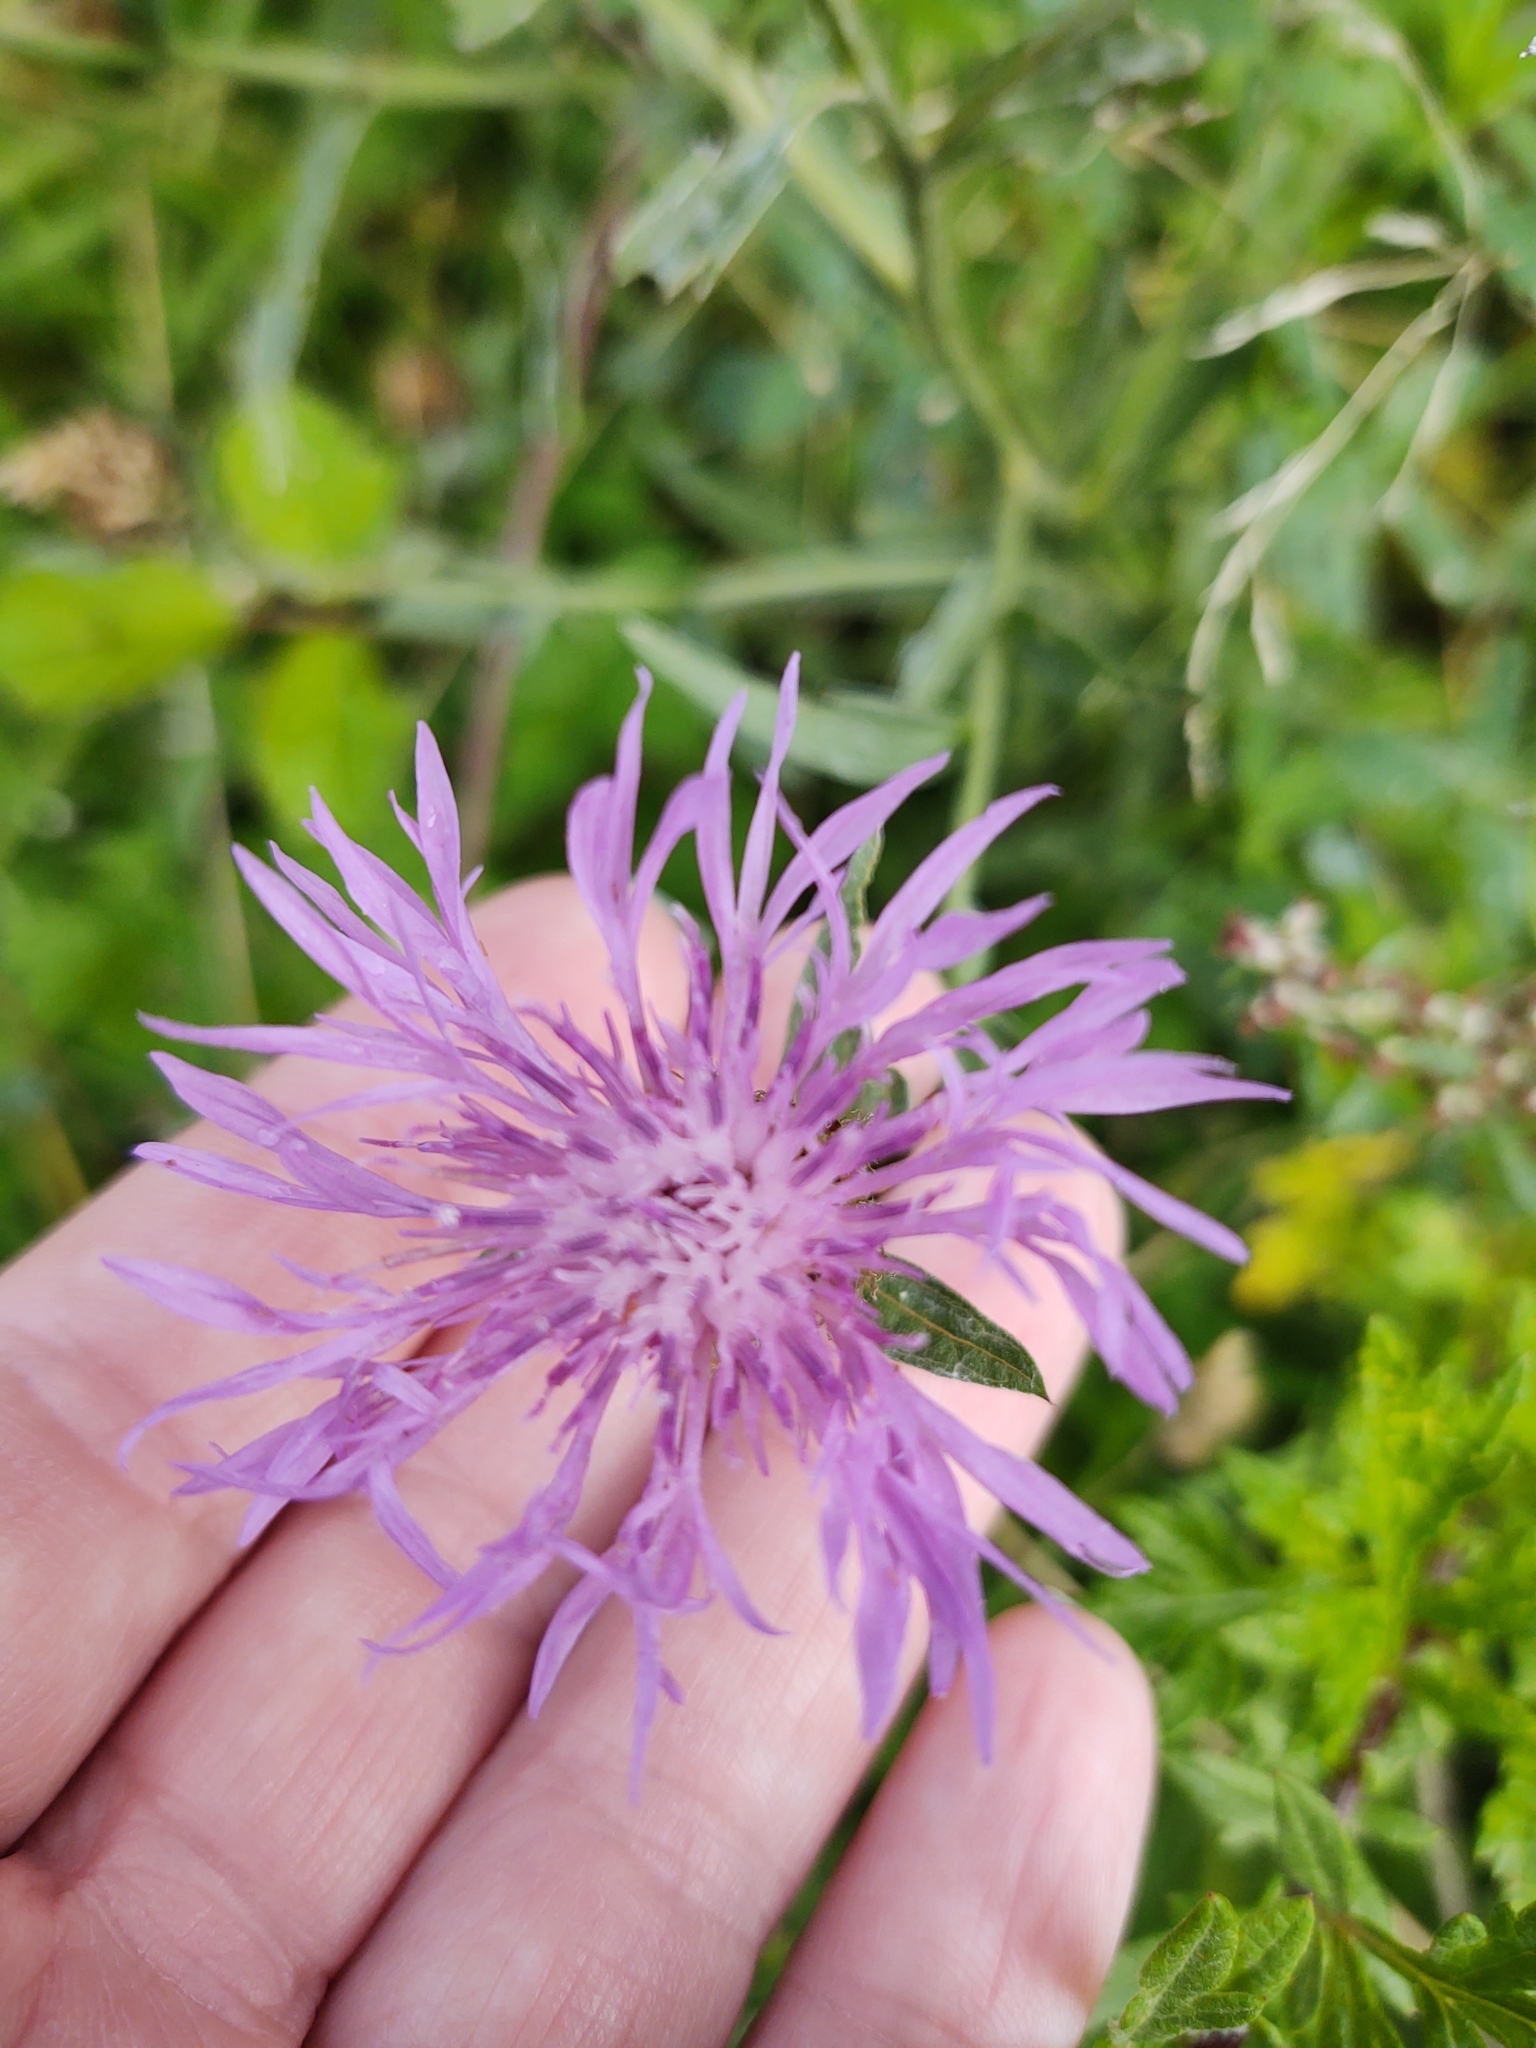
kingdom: Plantae
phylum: Tracheophyta
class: Magnoliopsida
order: Asterales
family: Asteraceae
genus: Centaurea
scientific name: Centaurea jacea
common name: Brown knapweed
